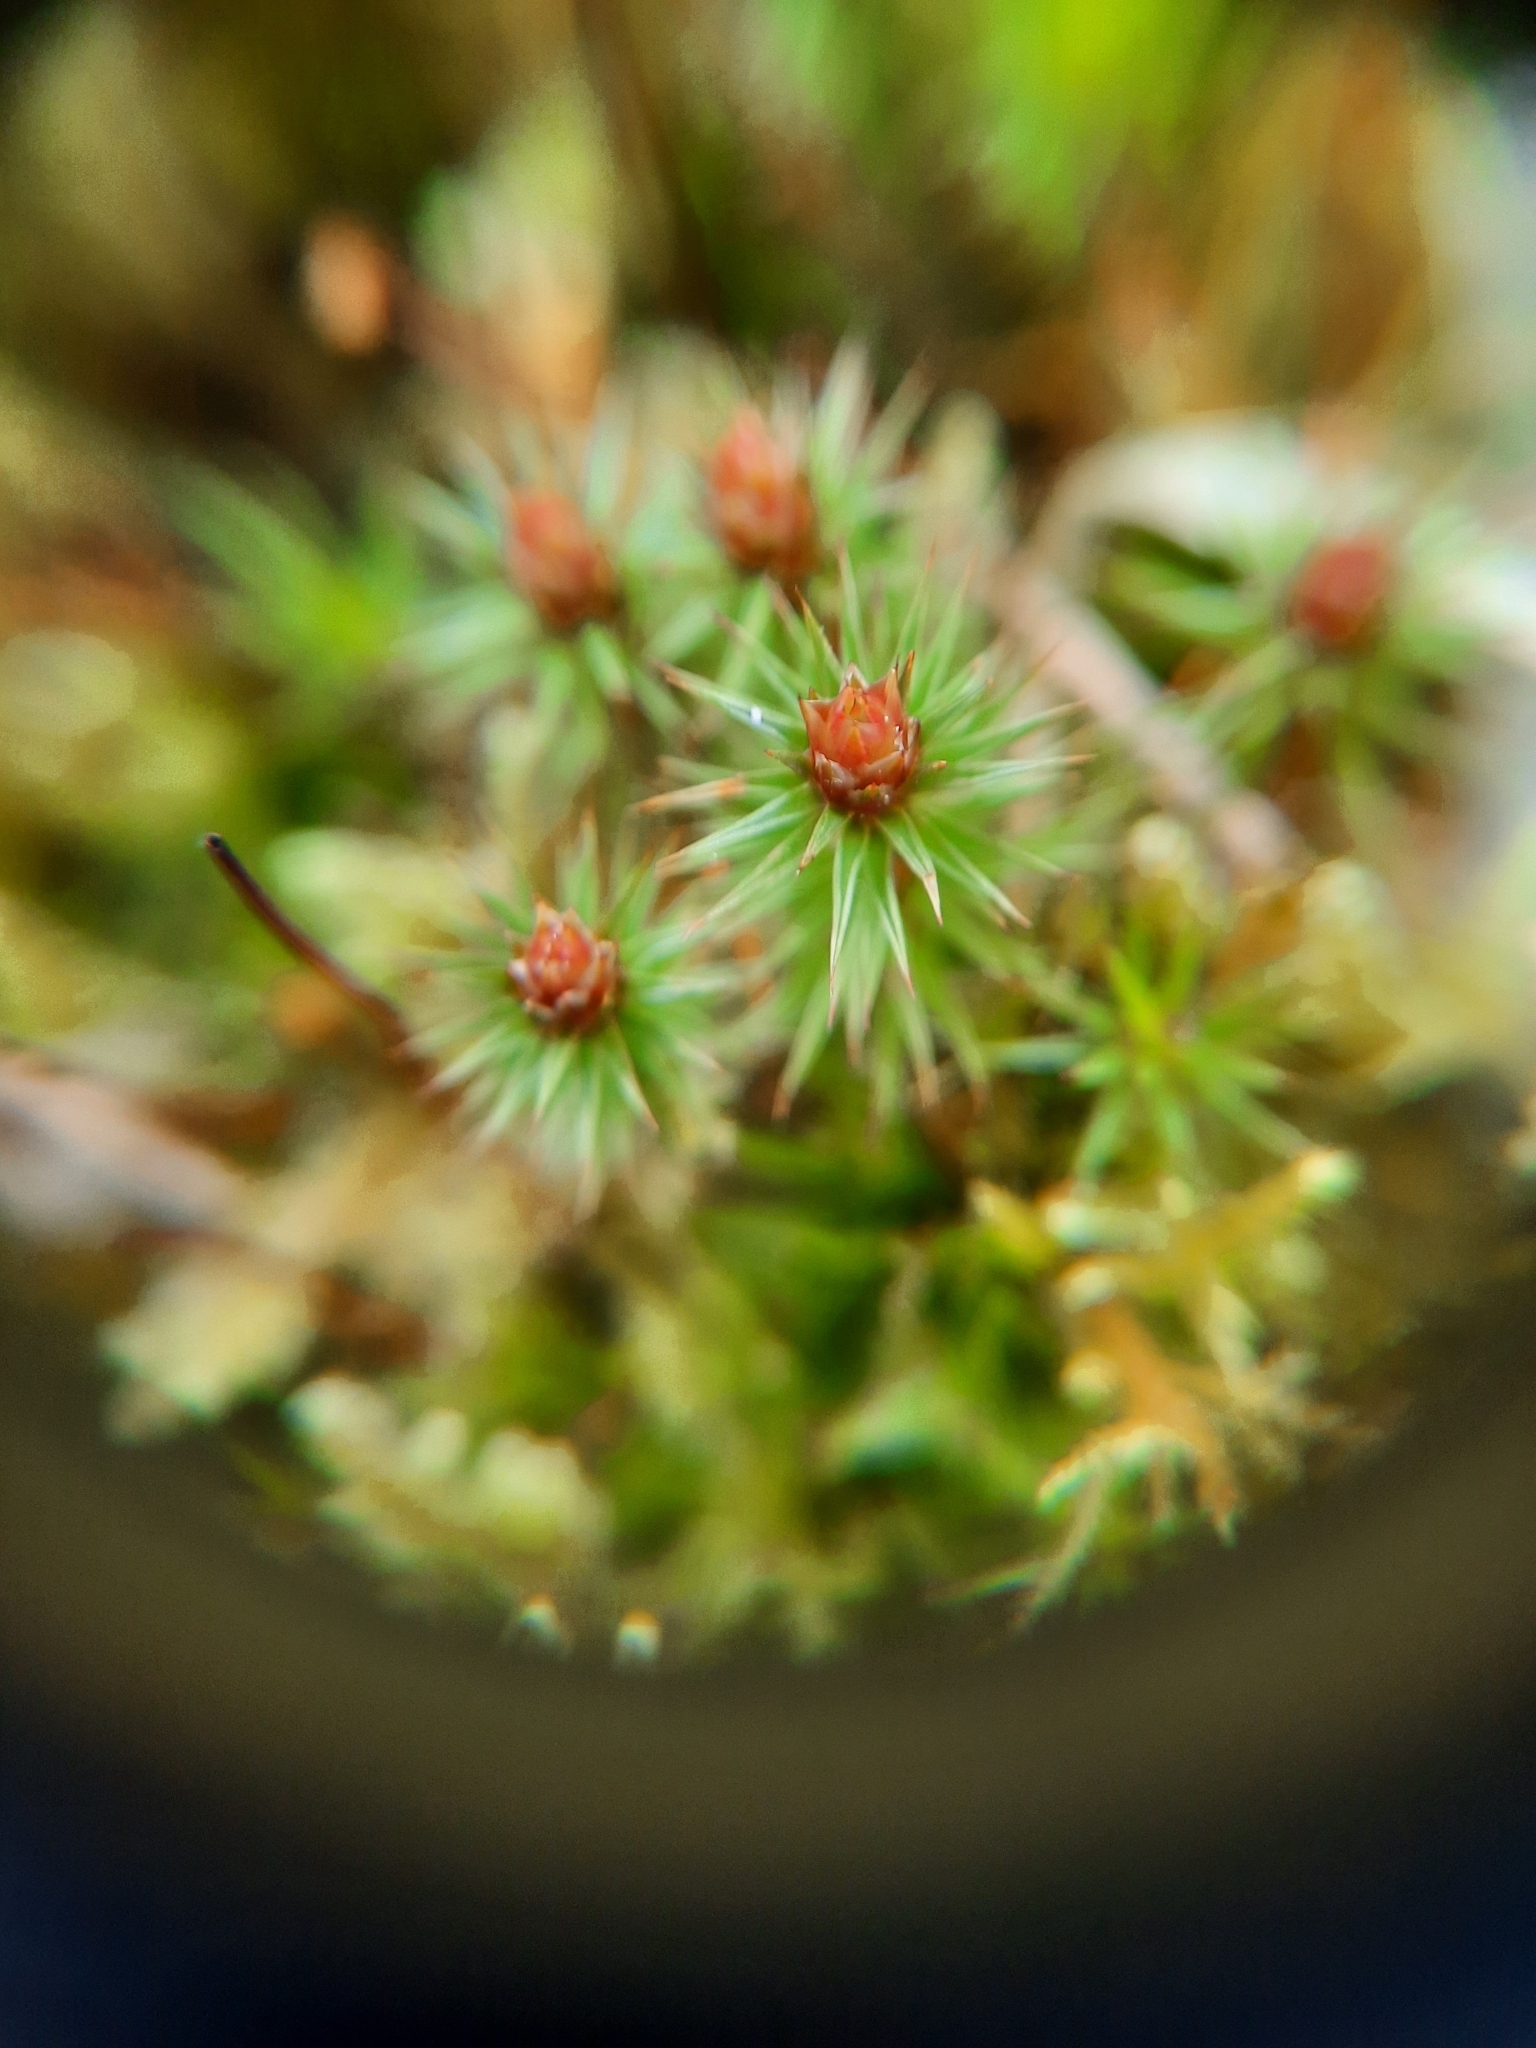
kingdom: Plantae
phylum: Bryophyta
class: Polytrichopsida
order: Polytrichales
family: Polytrichaceae
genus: Polytrichum
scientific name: Polytrichum juniperinum
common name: Juniper haircap moss
